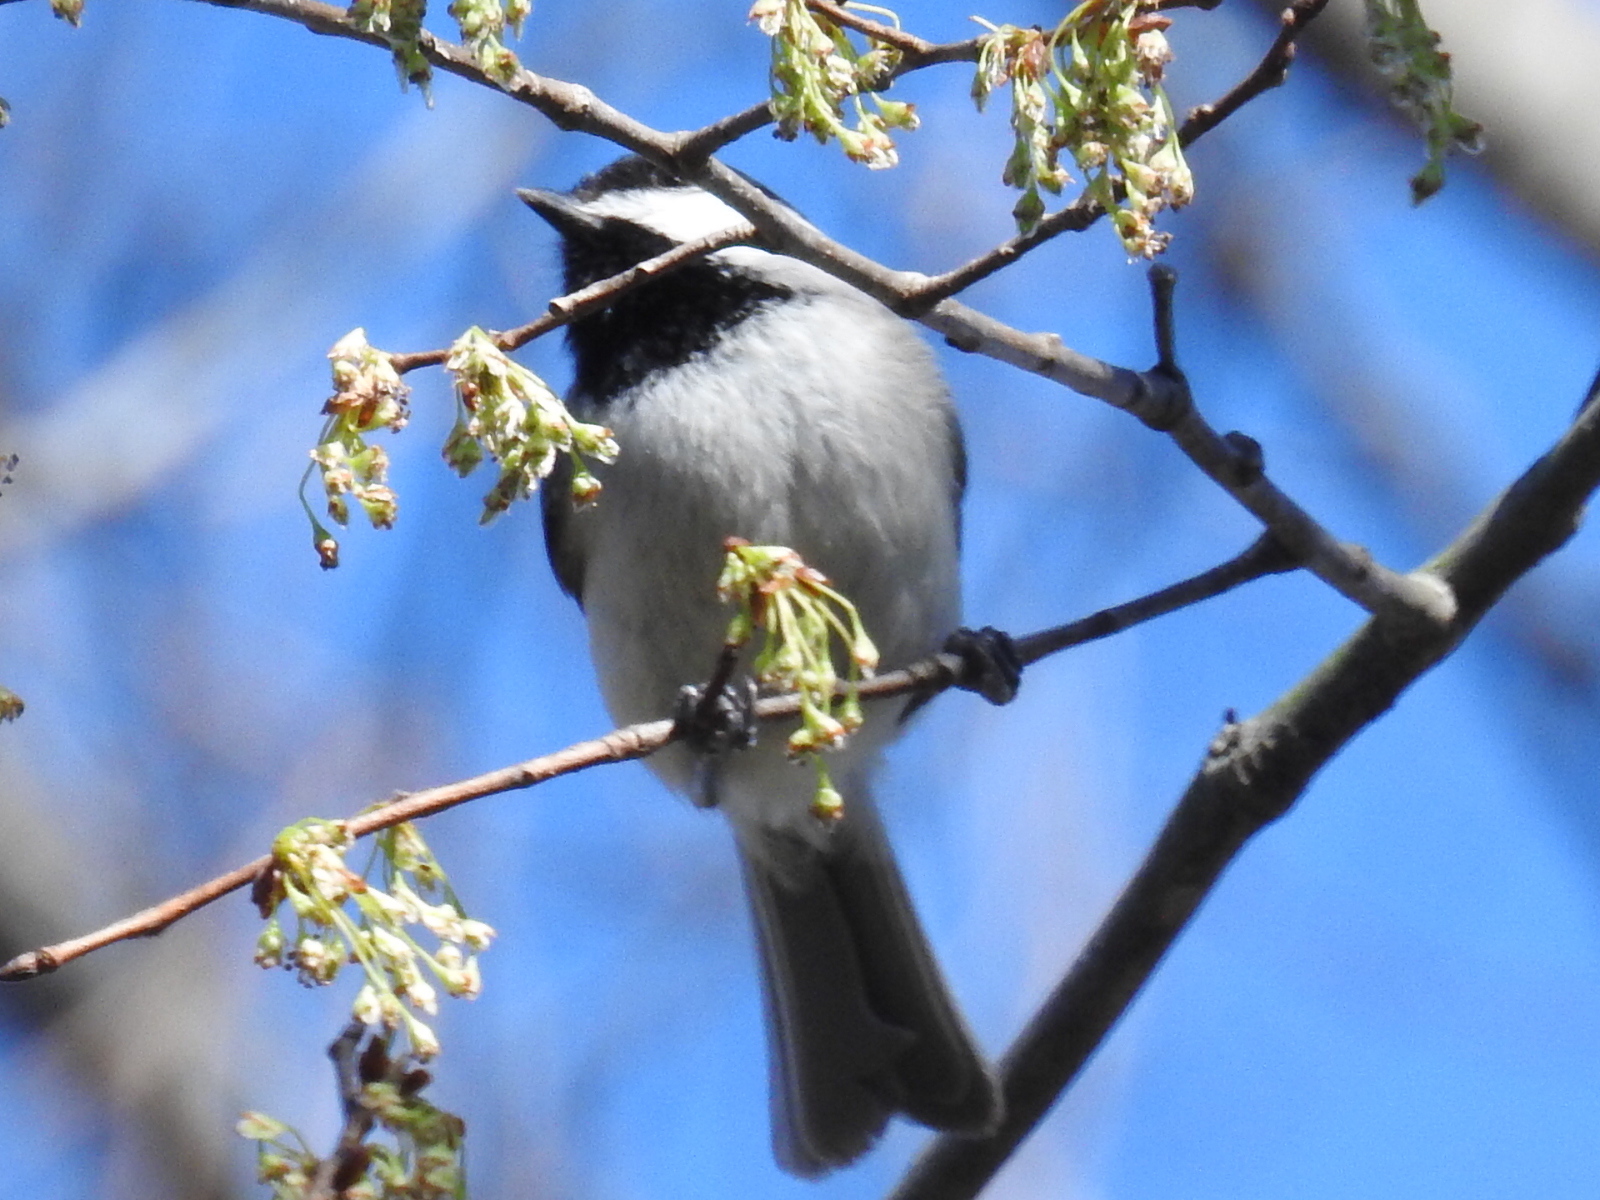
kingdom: Animalia
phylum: Chordata
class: Aves
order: Passeriformes
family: Paridae
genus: Poecile
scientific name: Poecile carolinensis
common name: Carolina chickadee
